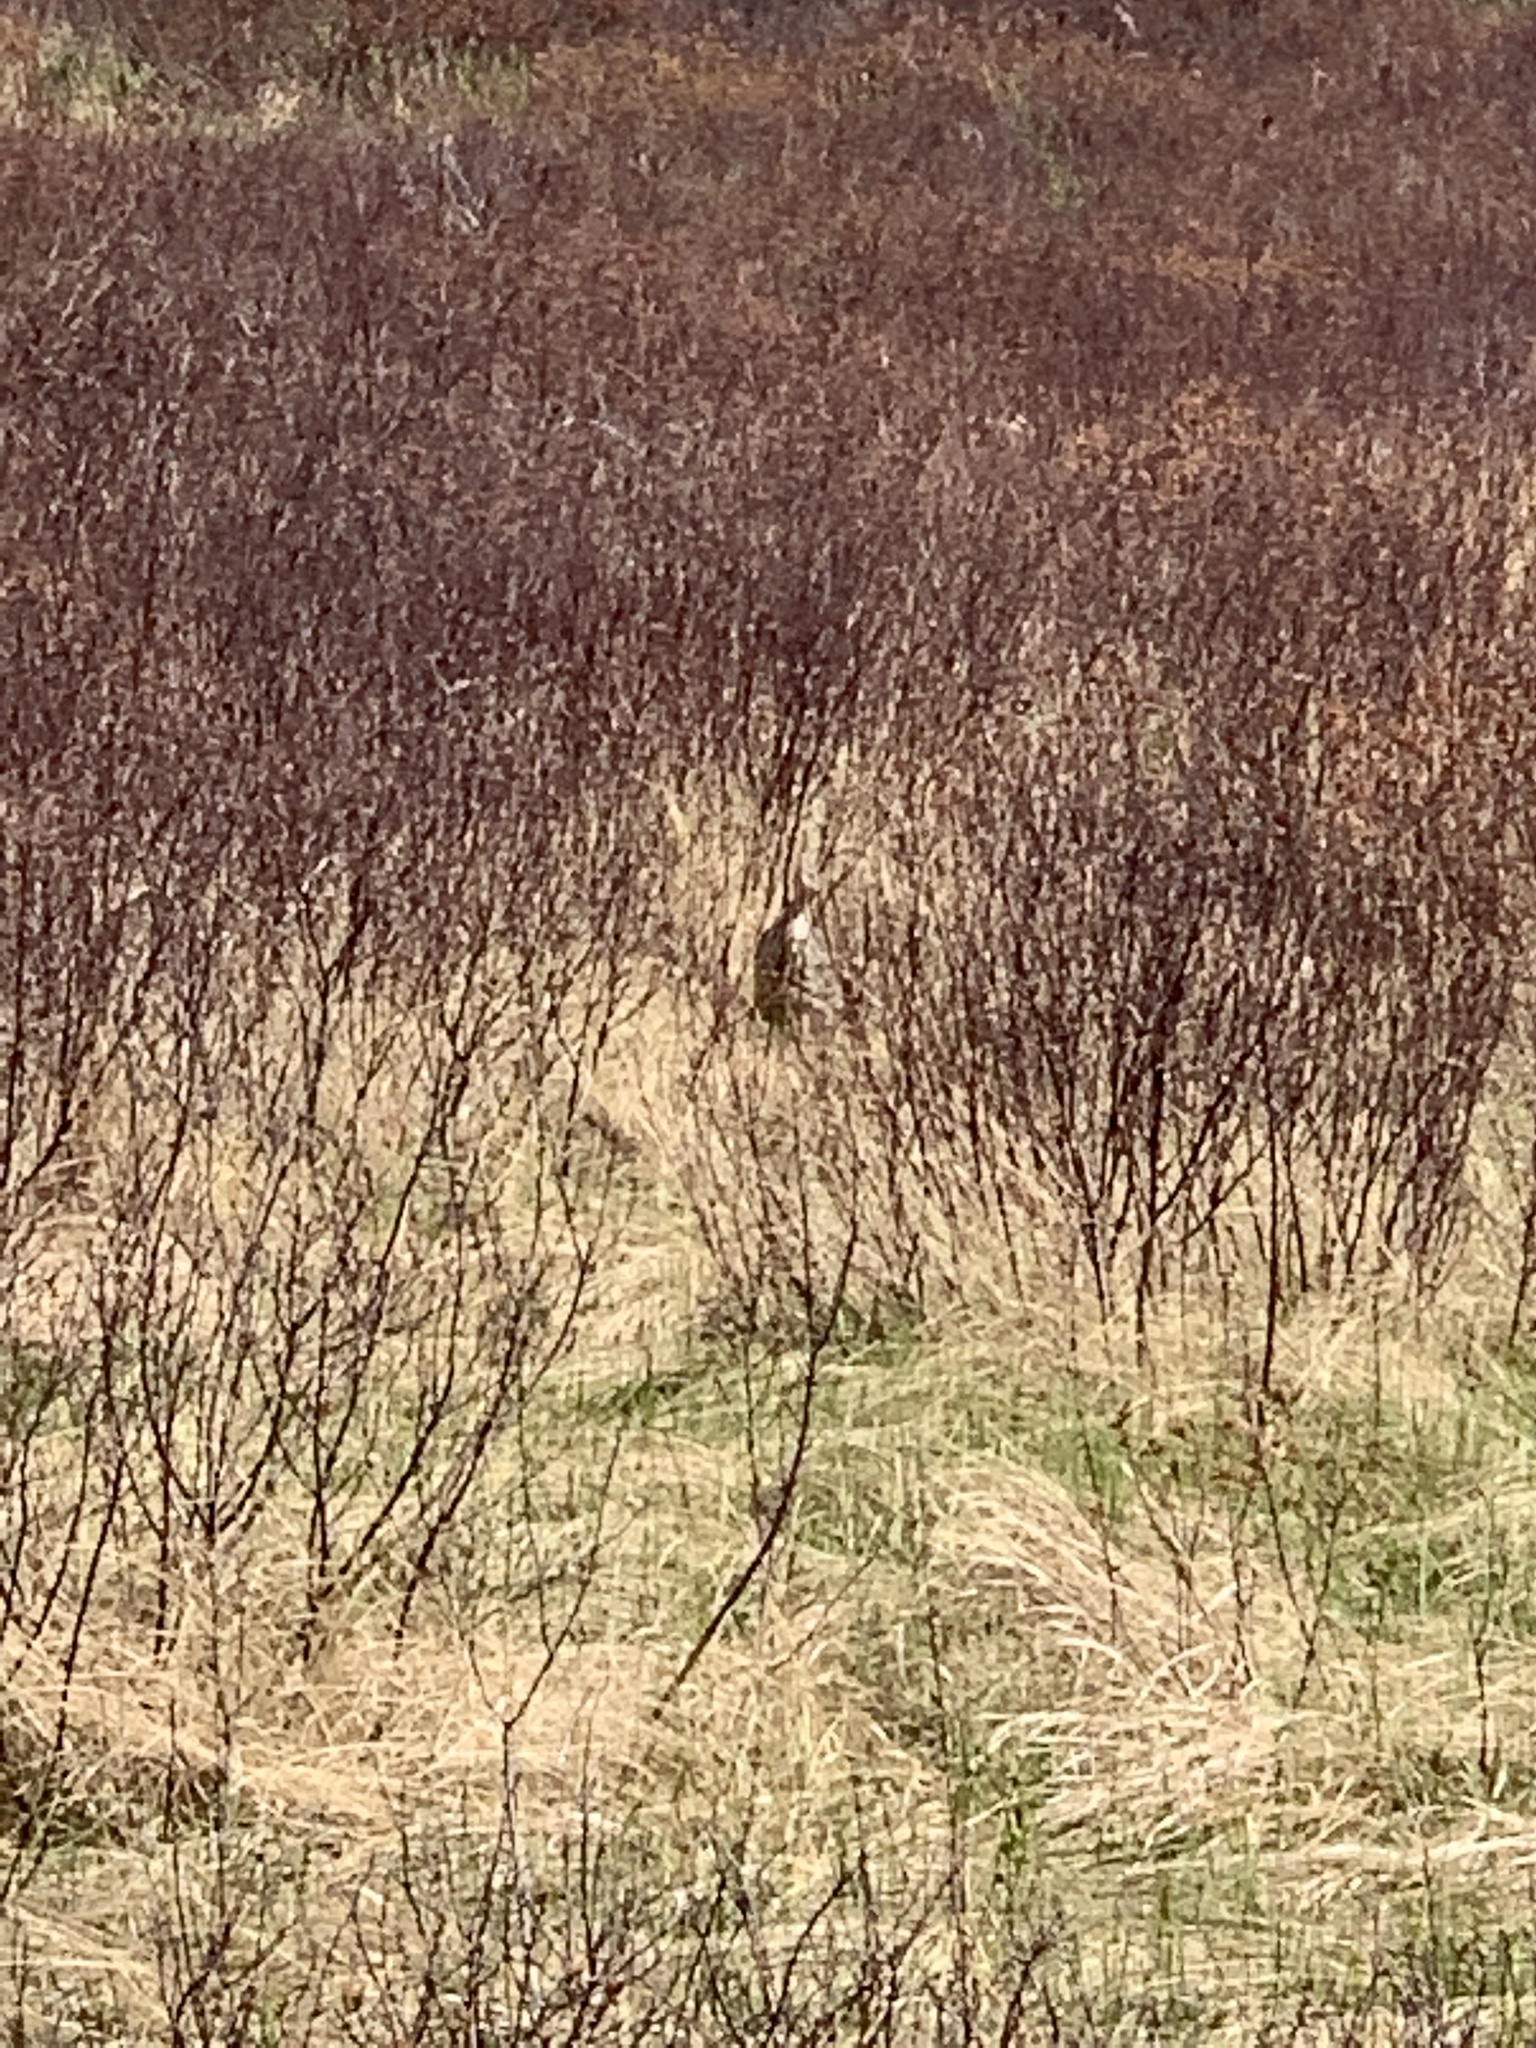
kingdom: Animalia
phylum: Chordata
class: Aves
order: Pelecaniformes
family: Ardeidae
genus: Botaurus
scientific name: Botaurus lentiginosus
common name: American bittern
